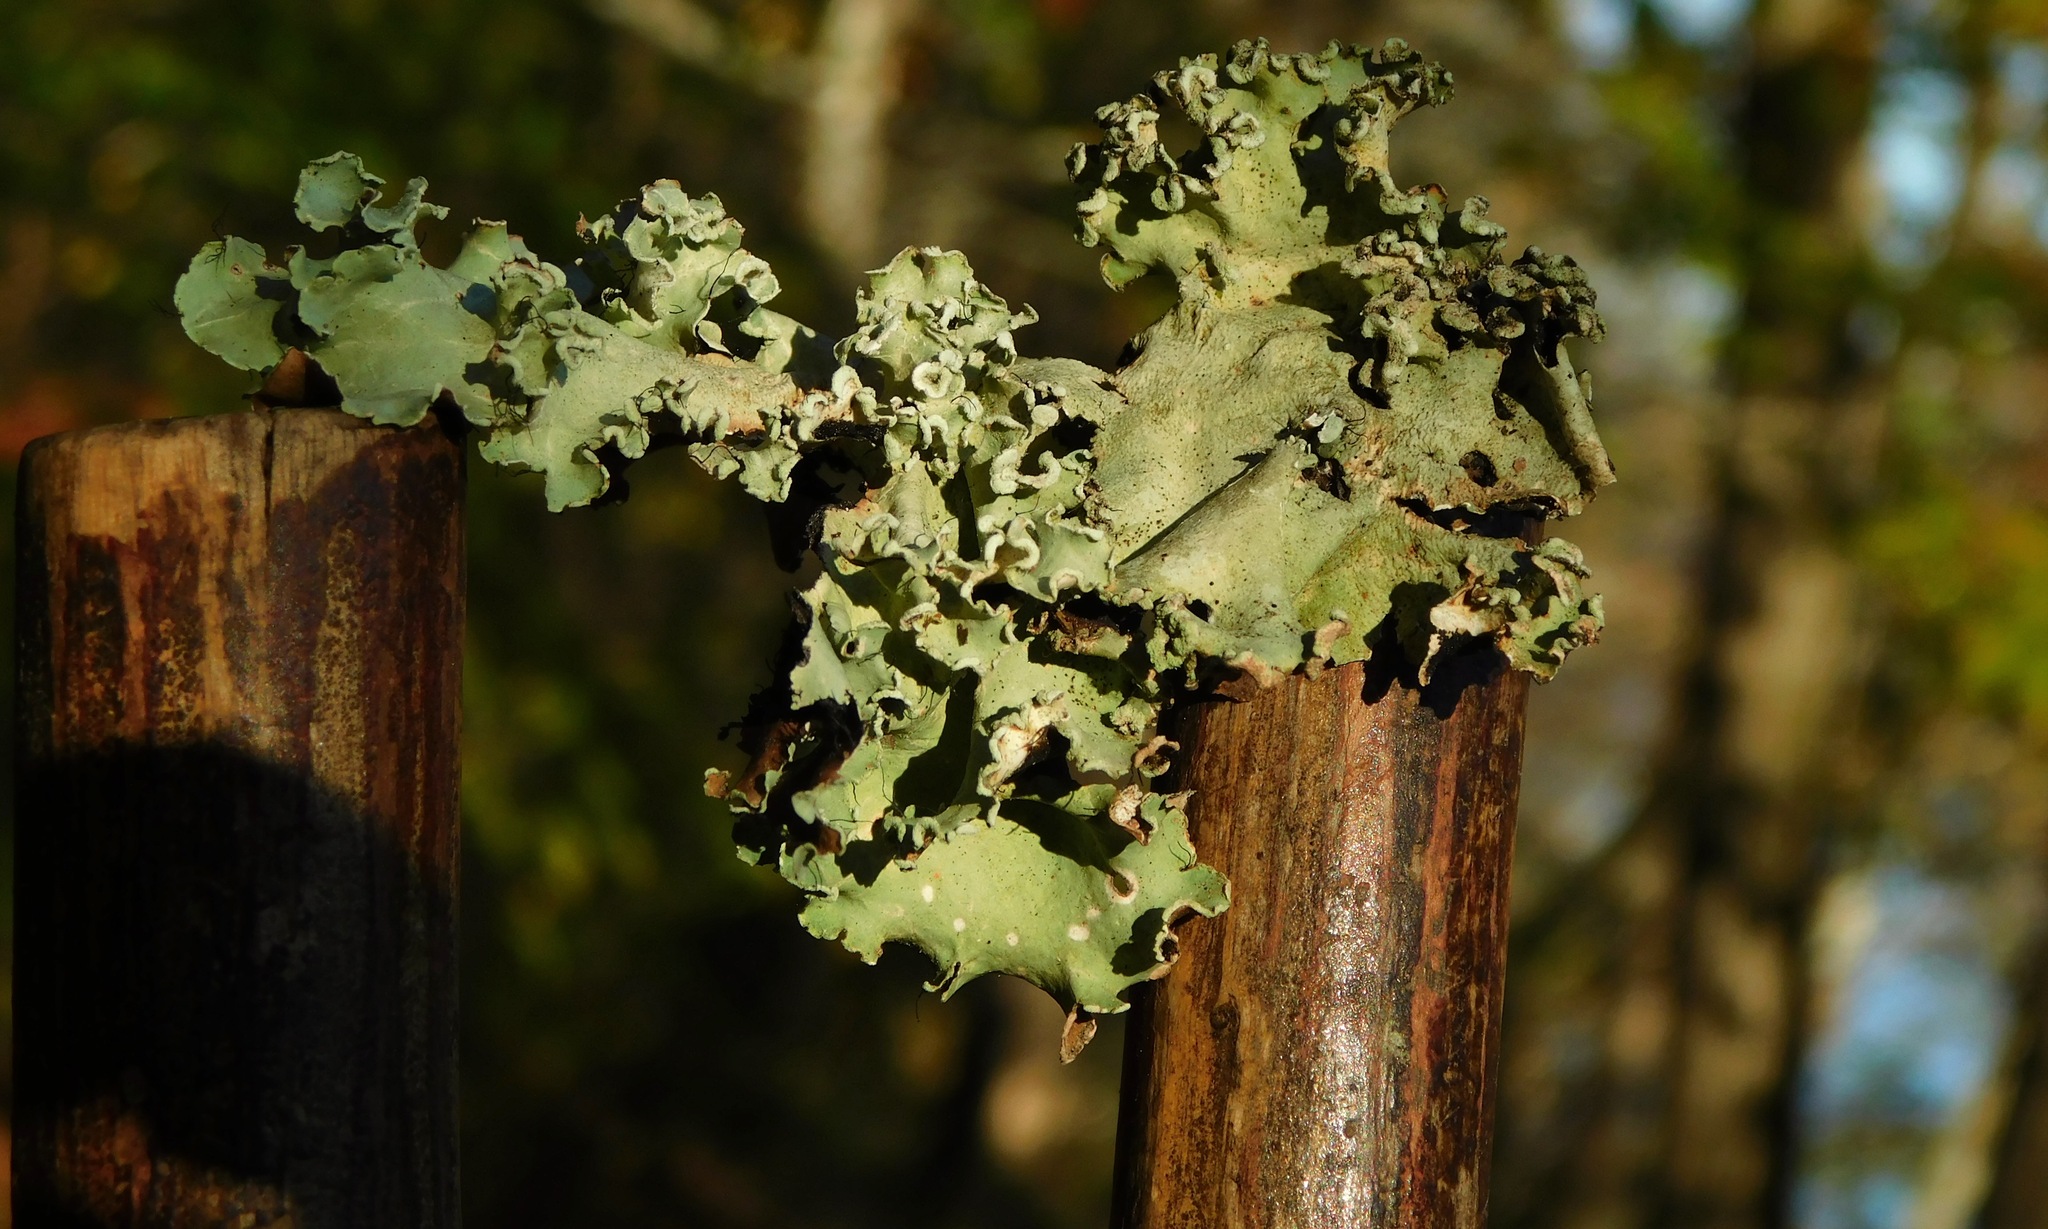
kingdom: Fungi
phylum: Ascomycota
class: Lecanoromycetes
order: Lecanorales
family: Parmeliaceae
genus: Parmotrema
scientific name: Parmotrema gardneri
